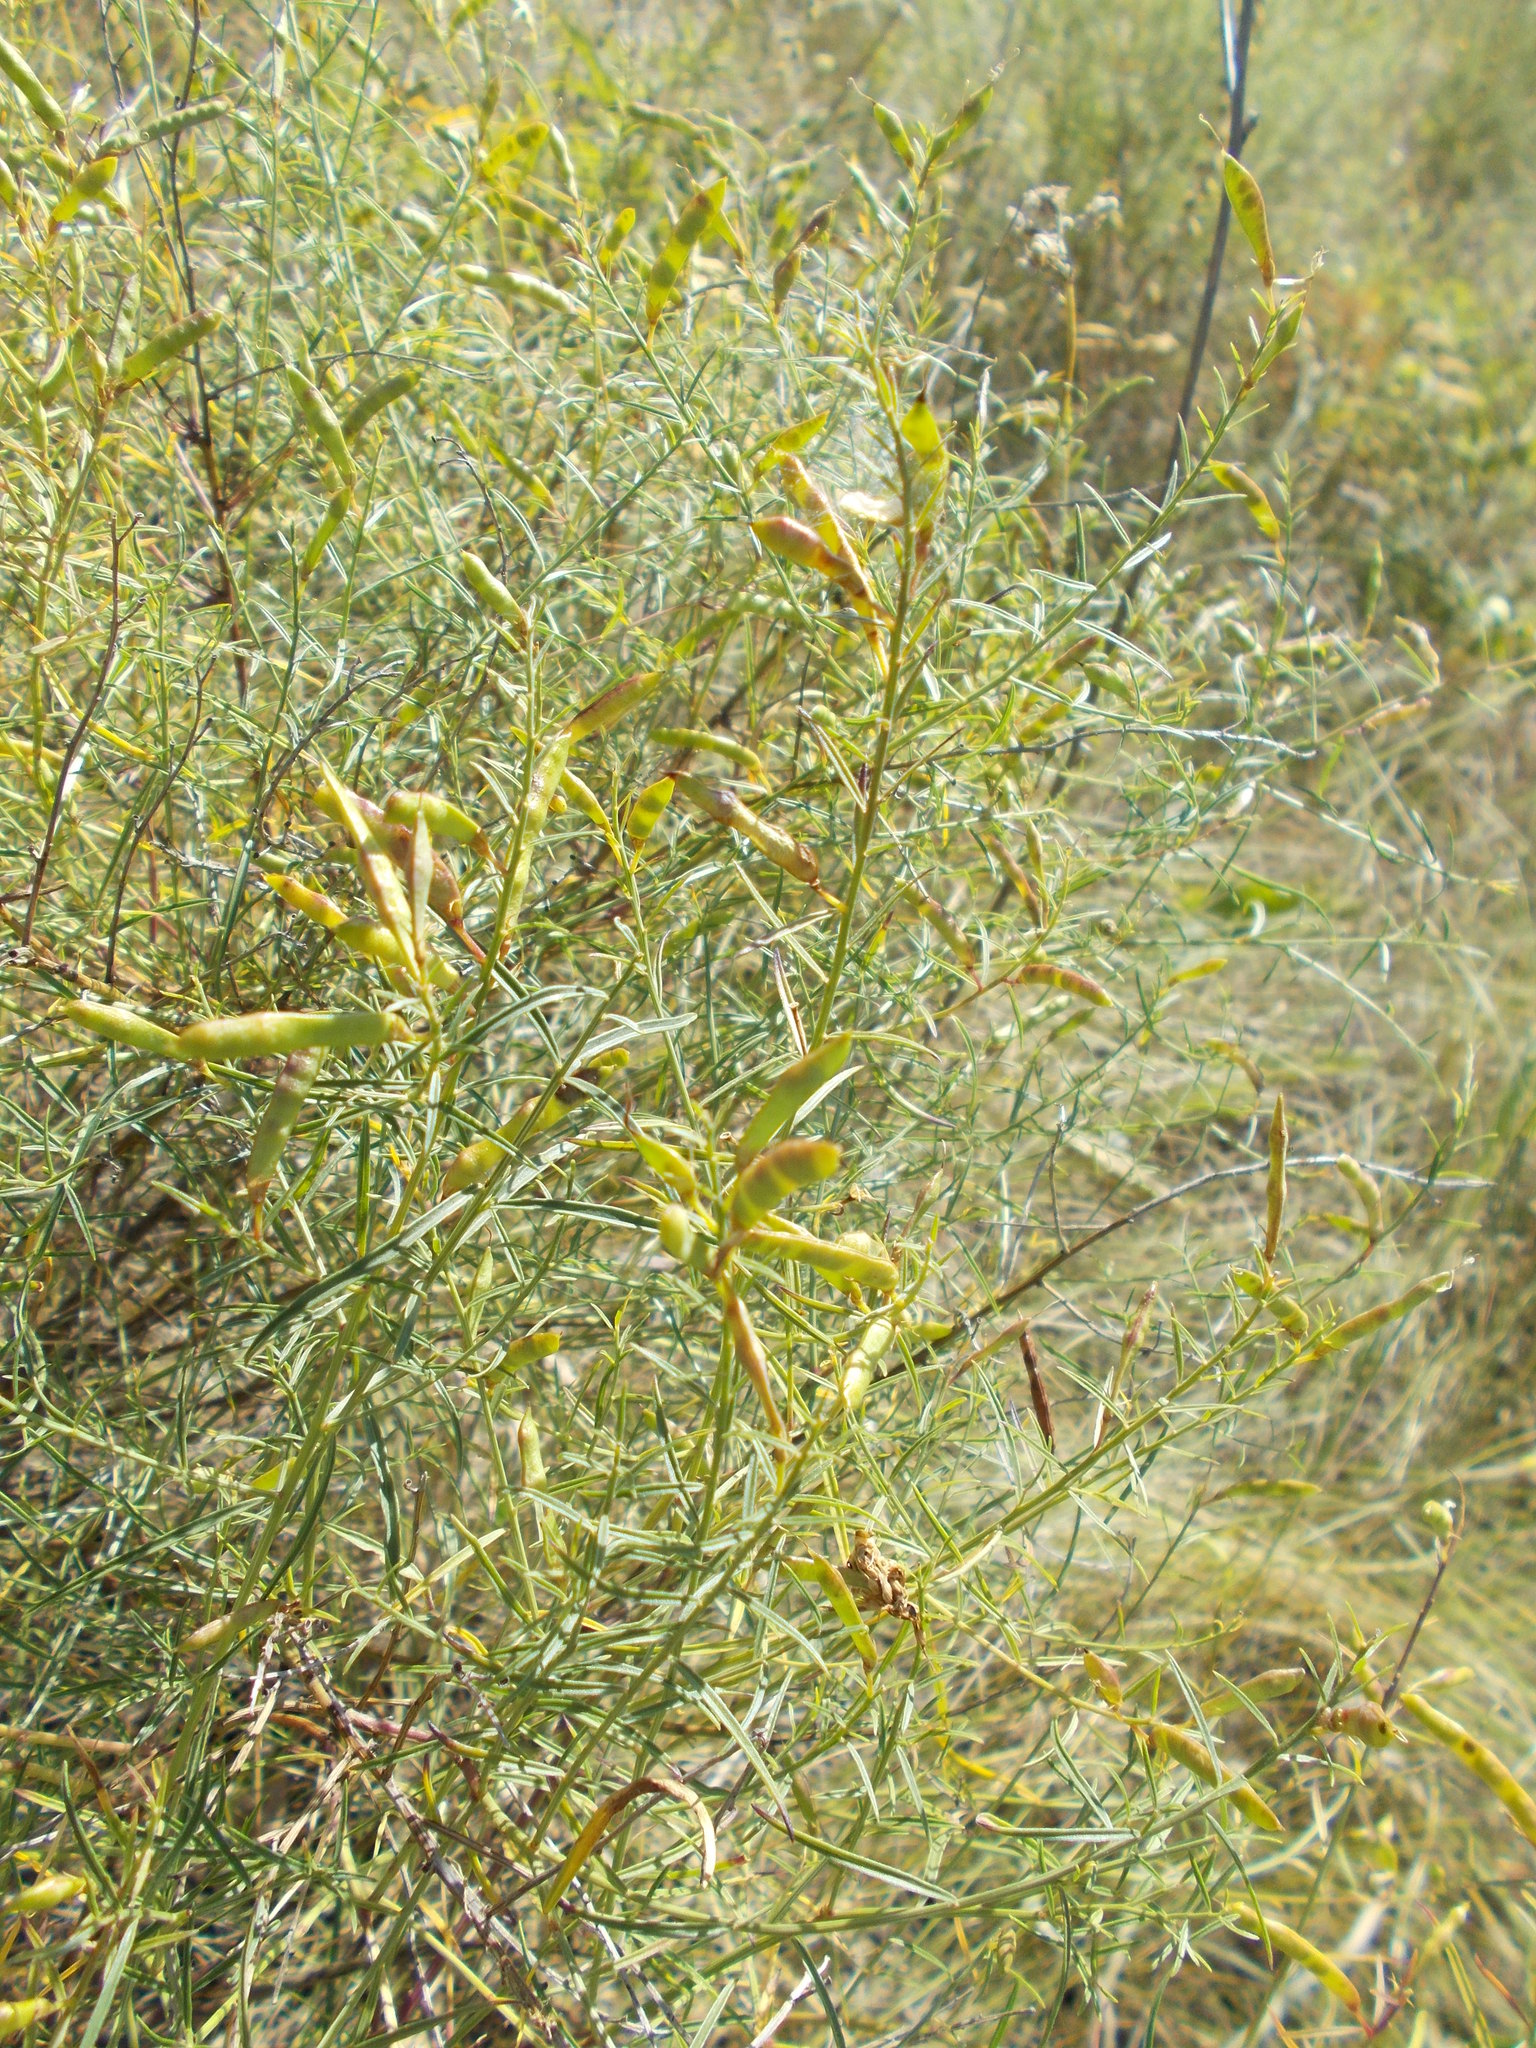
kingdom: Plantae
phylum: Tracheophyta
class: Magnoliopsida
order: Fabales
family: Fabaceae
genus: Genista
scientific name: Genista tinctoria
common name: Dyer's greenweed
